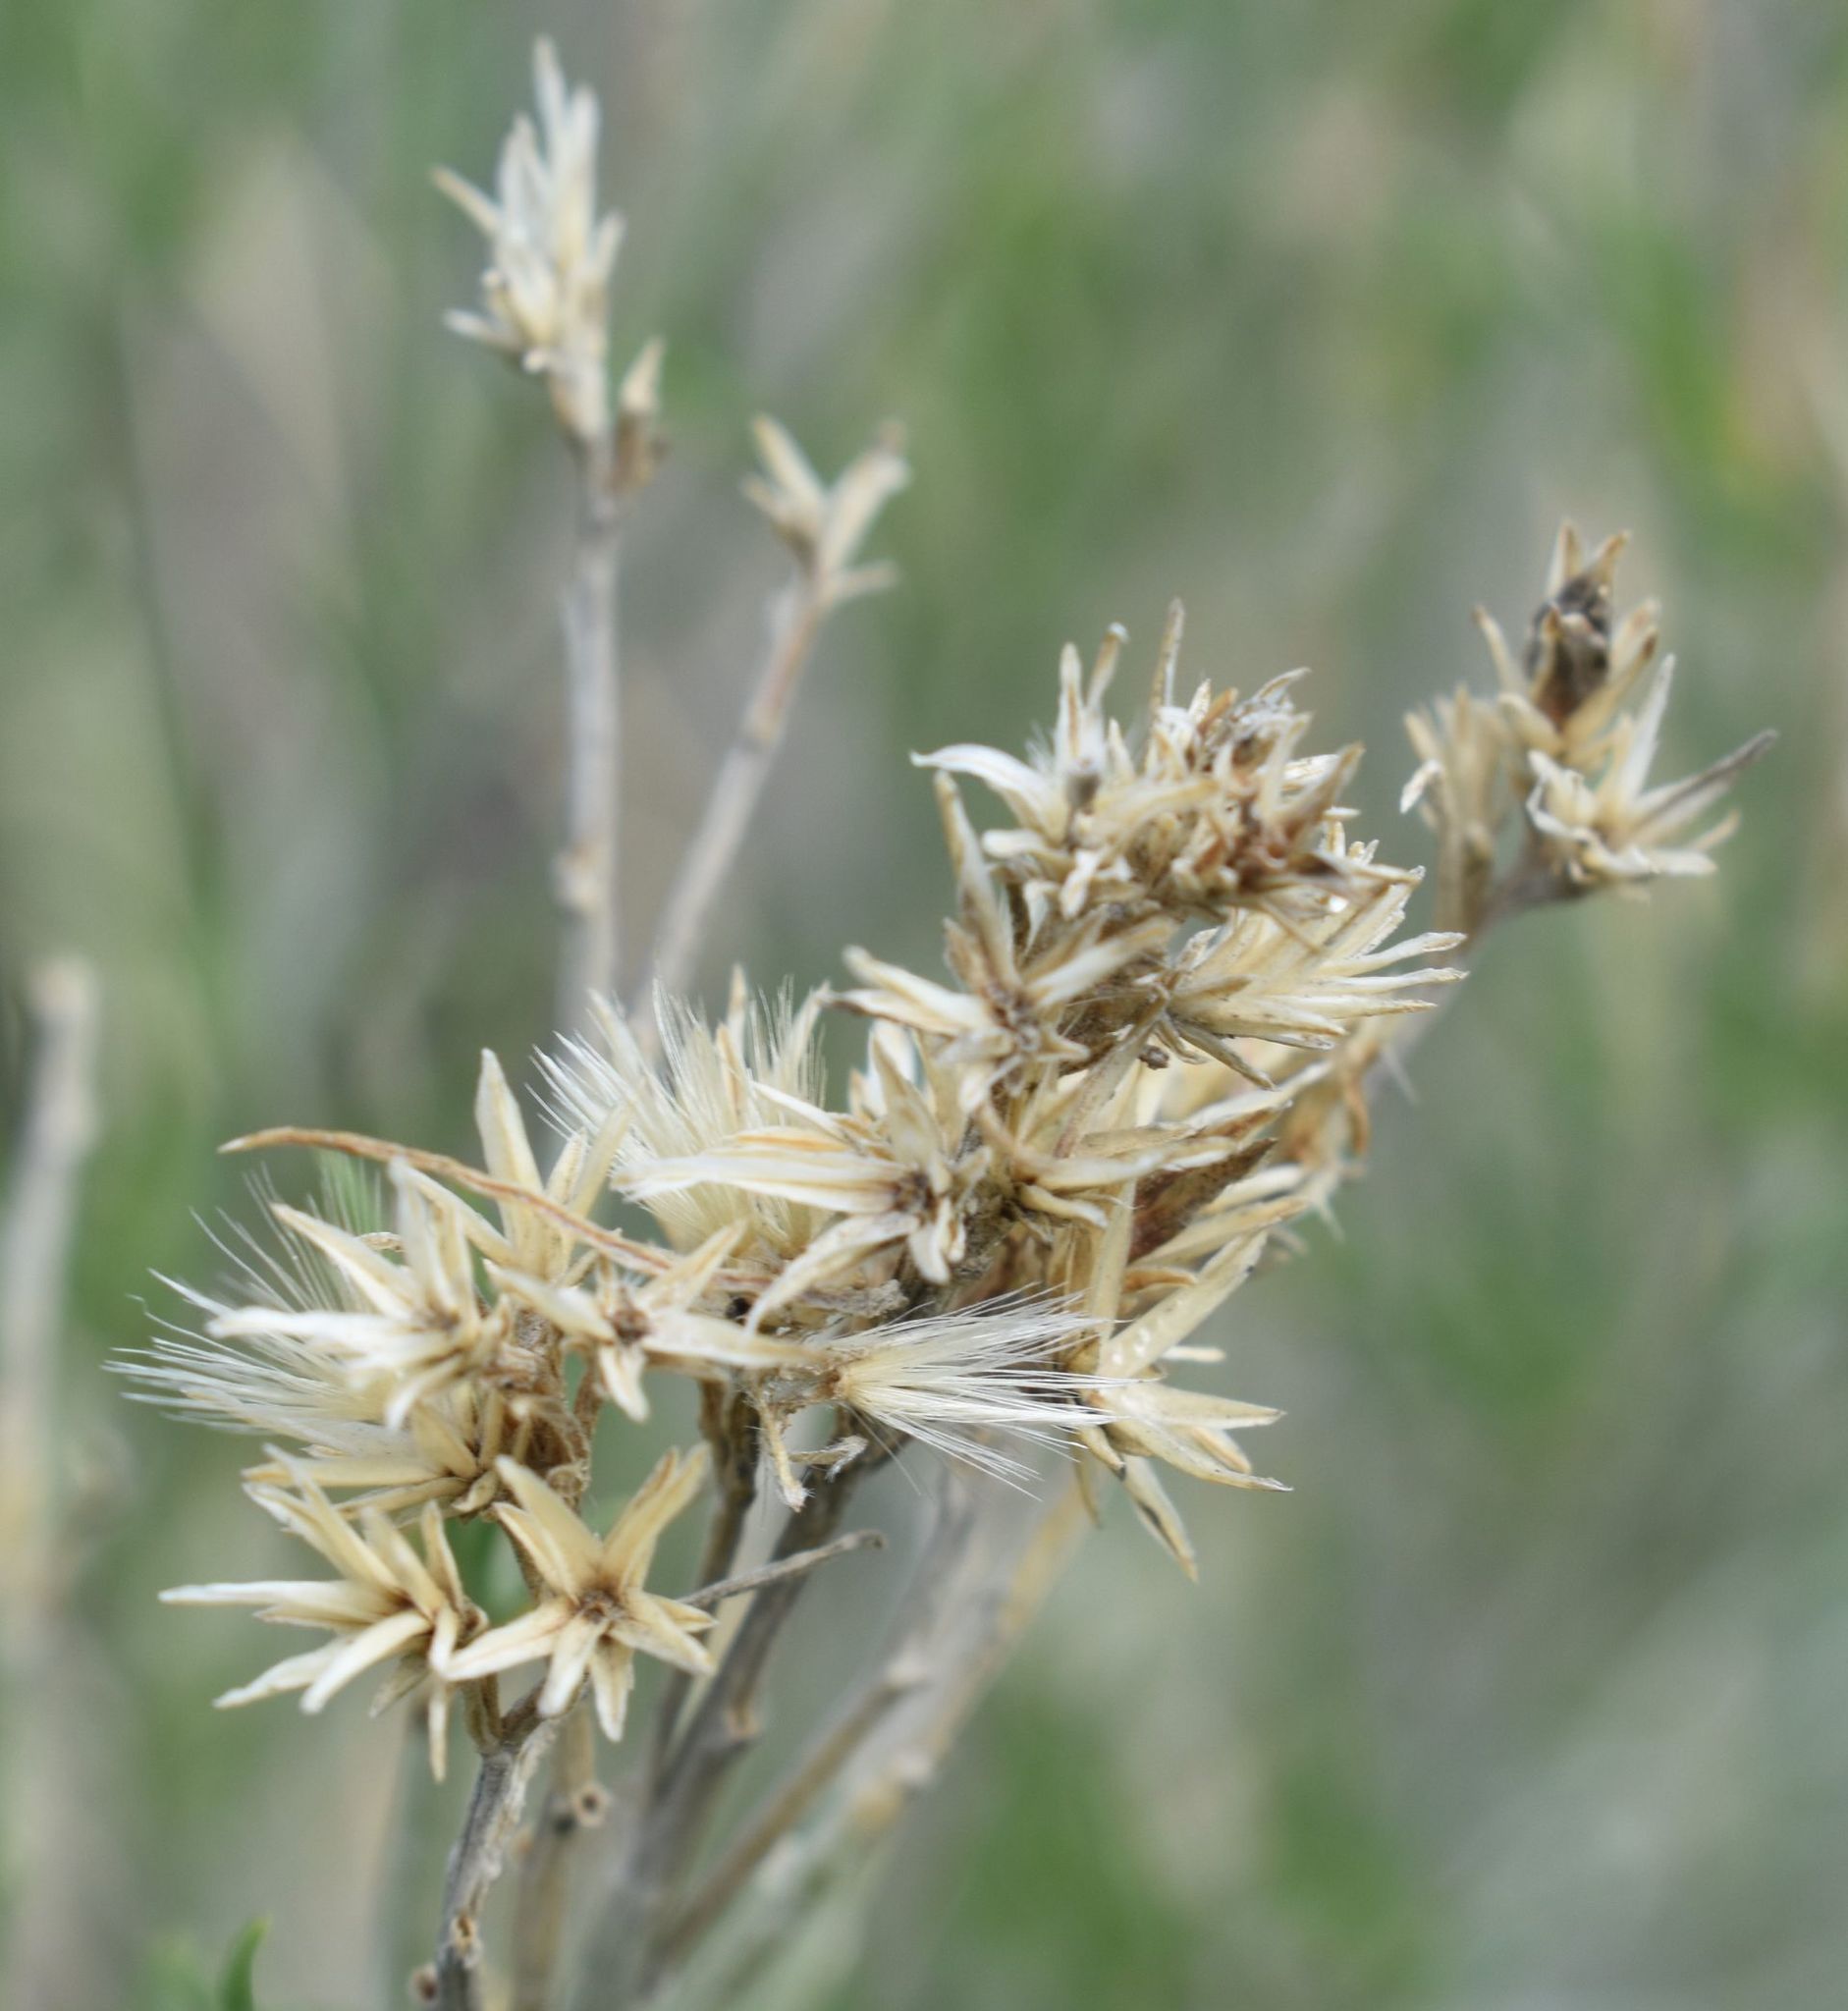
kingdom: Plantae
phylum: Tracheophyta
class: Magnoliopsida
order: Asterales
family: Asteraceae
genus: Ericameria
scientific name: Ericameria nauseosa
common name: Rubber rabbitbrush
